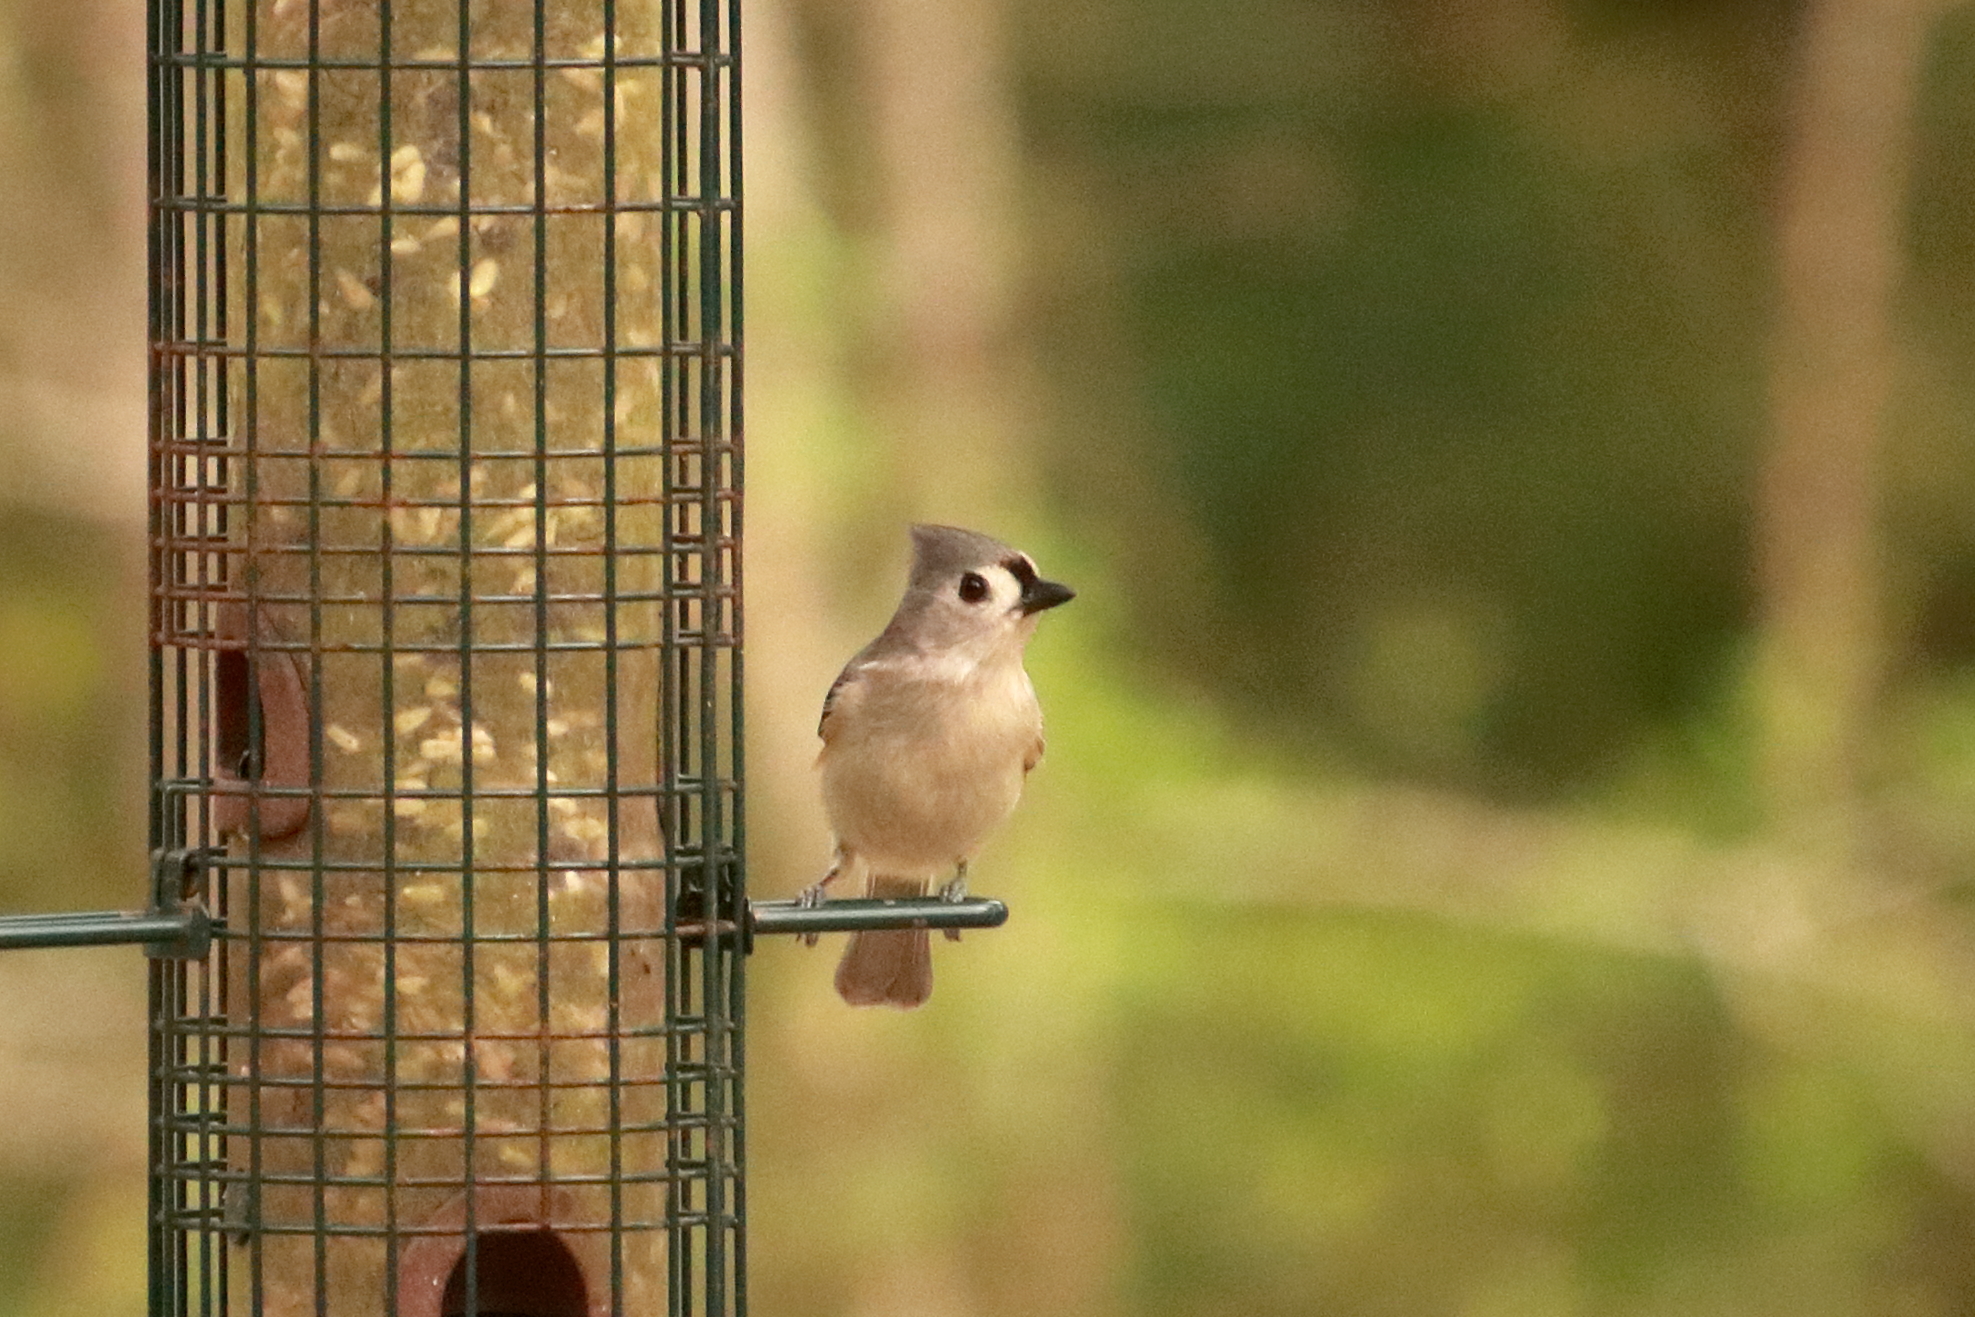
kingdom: Animalia
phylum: Chordata
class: Aves
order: Passeriformes
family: Paridae
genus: Baeolophus
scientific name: Baeolophus bicolor
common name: Tufted titmouse
